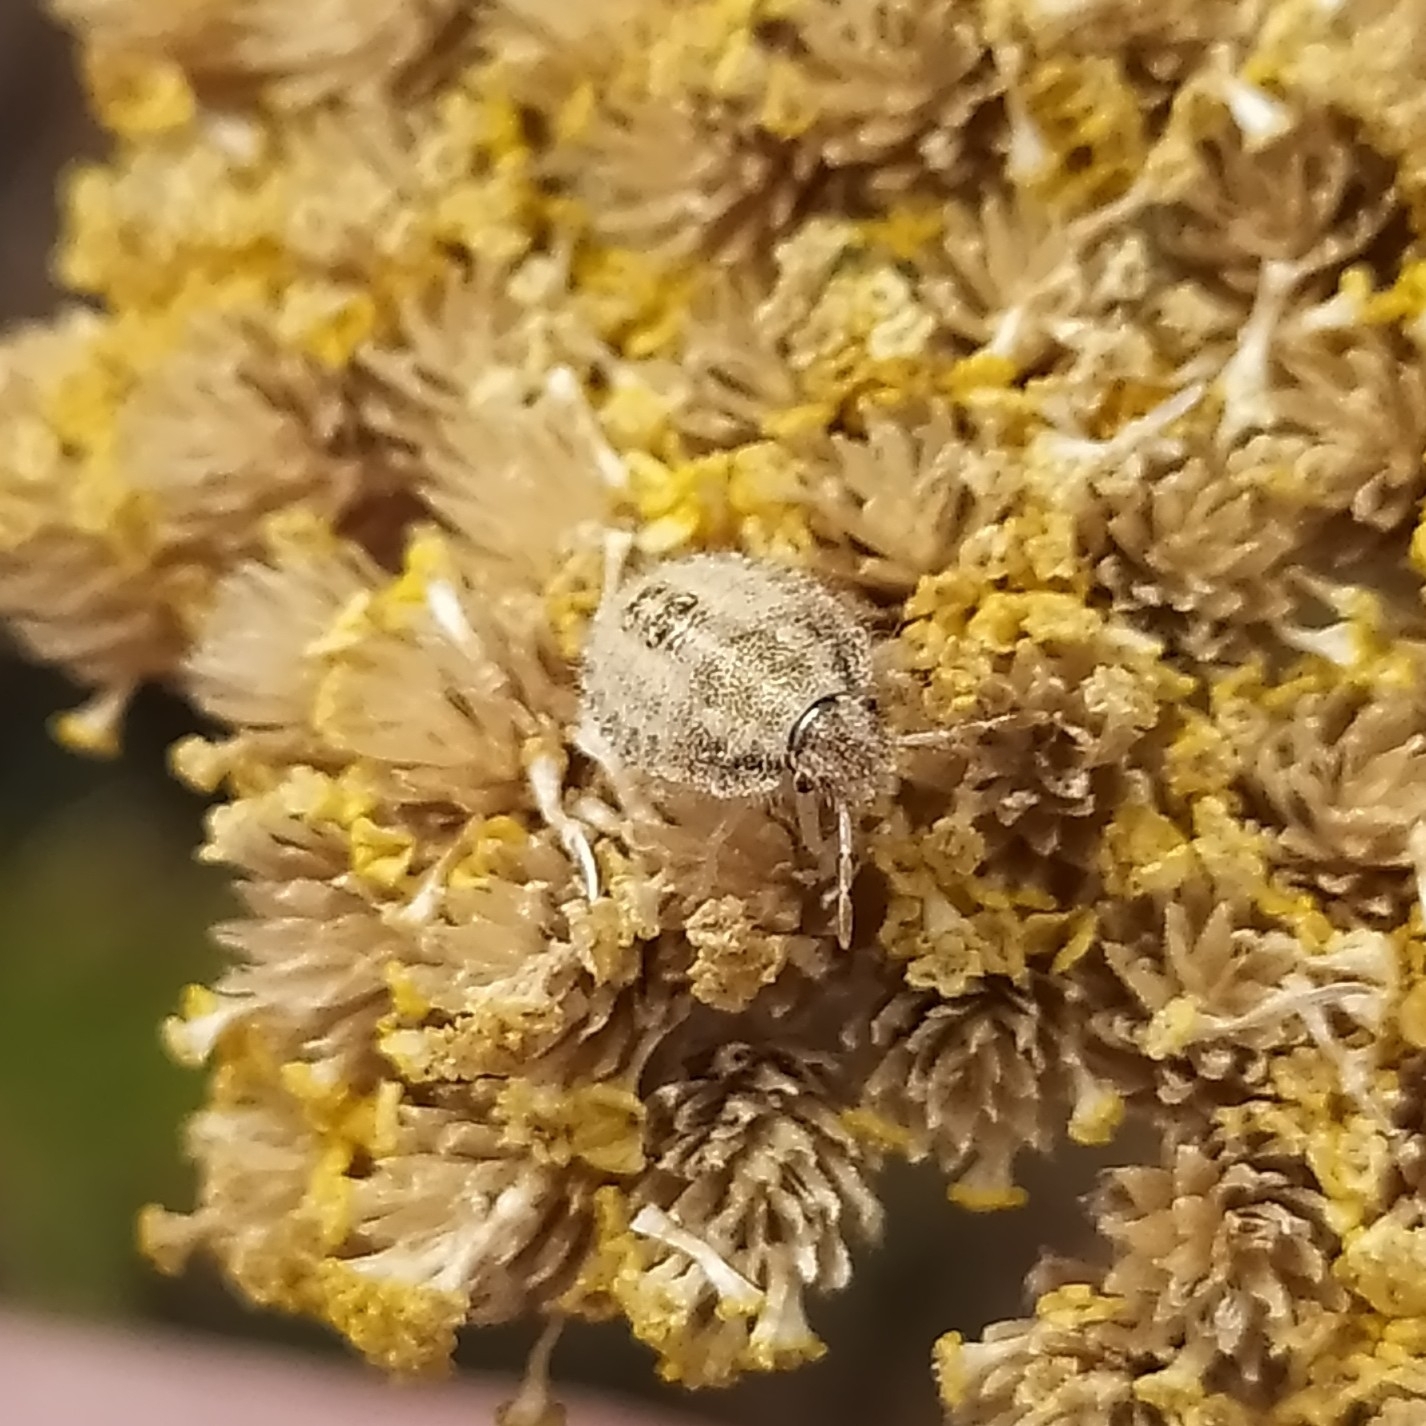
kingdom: Animalia
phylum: Arthropoda
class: Insecta
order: Hemiptera
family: Pentatomidae
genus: Dolycoris
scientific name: Dolycoris baccarum
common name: Sloe bug
